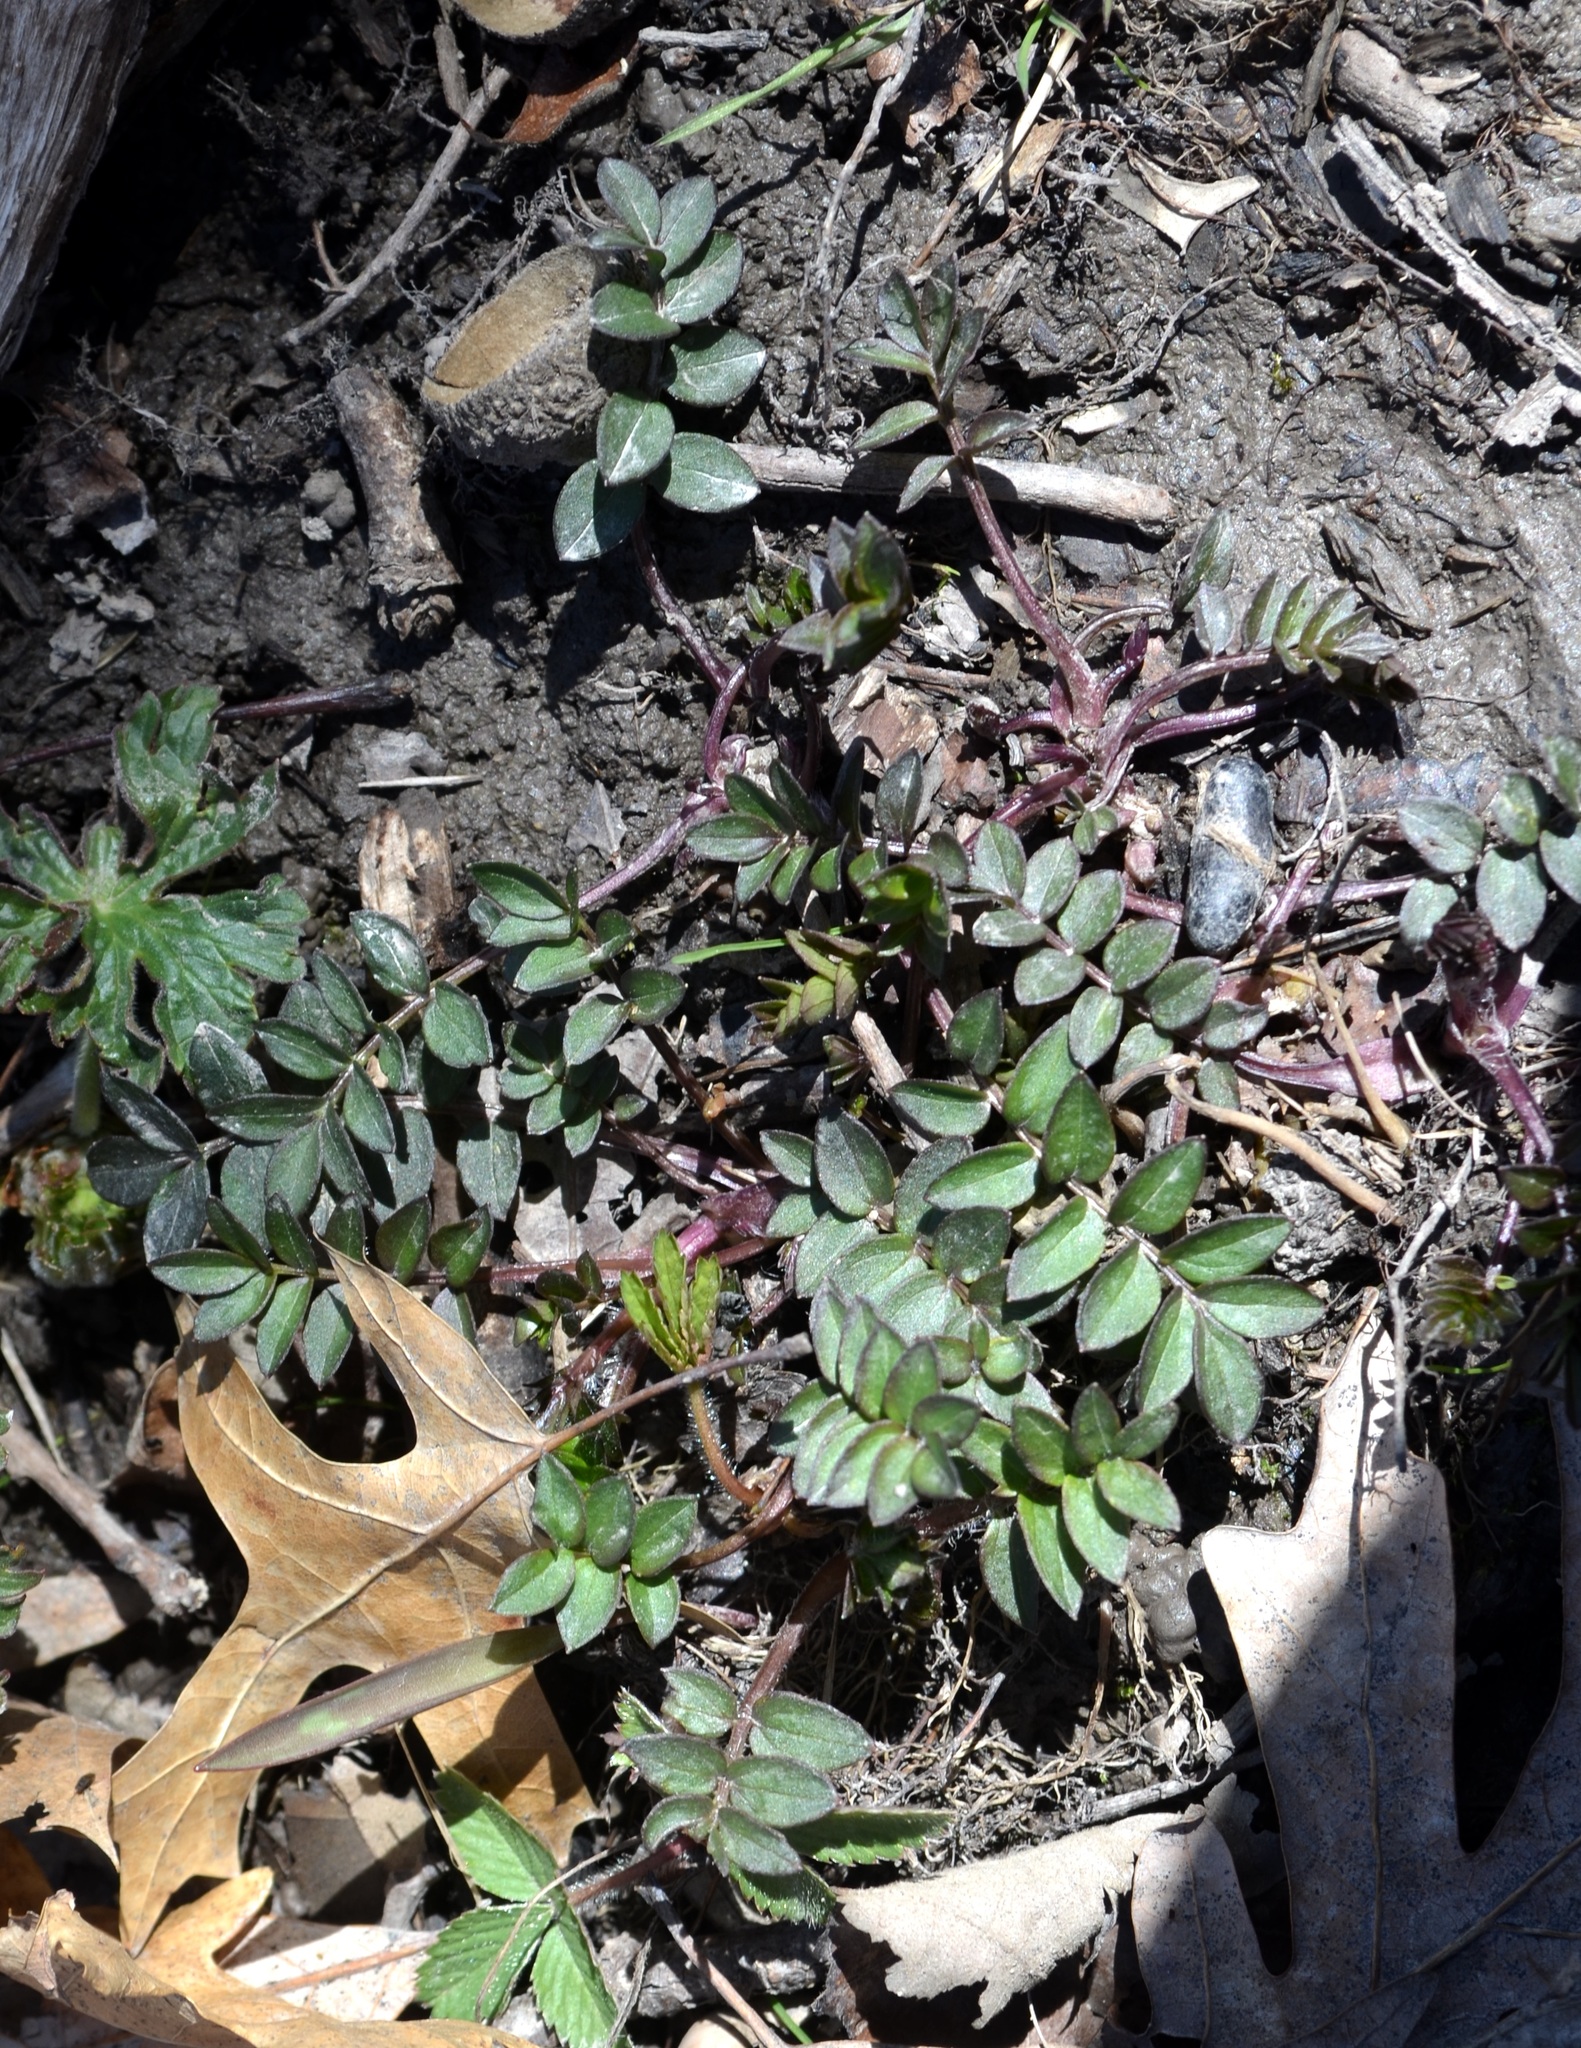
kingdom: Plantae
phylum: Tracheophyta
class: Magnoliopsida
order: Ericales
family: Polemoniaceae
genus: Polemonium
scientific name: Polemonium reptans
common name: Creeping jacob's-ladder
